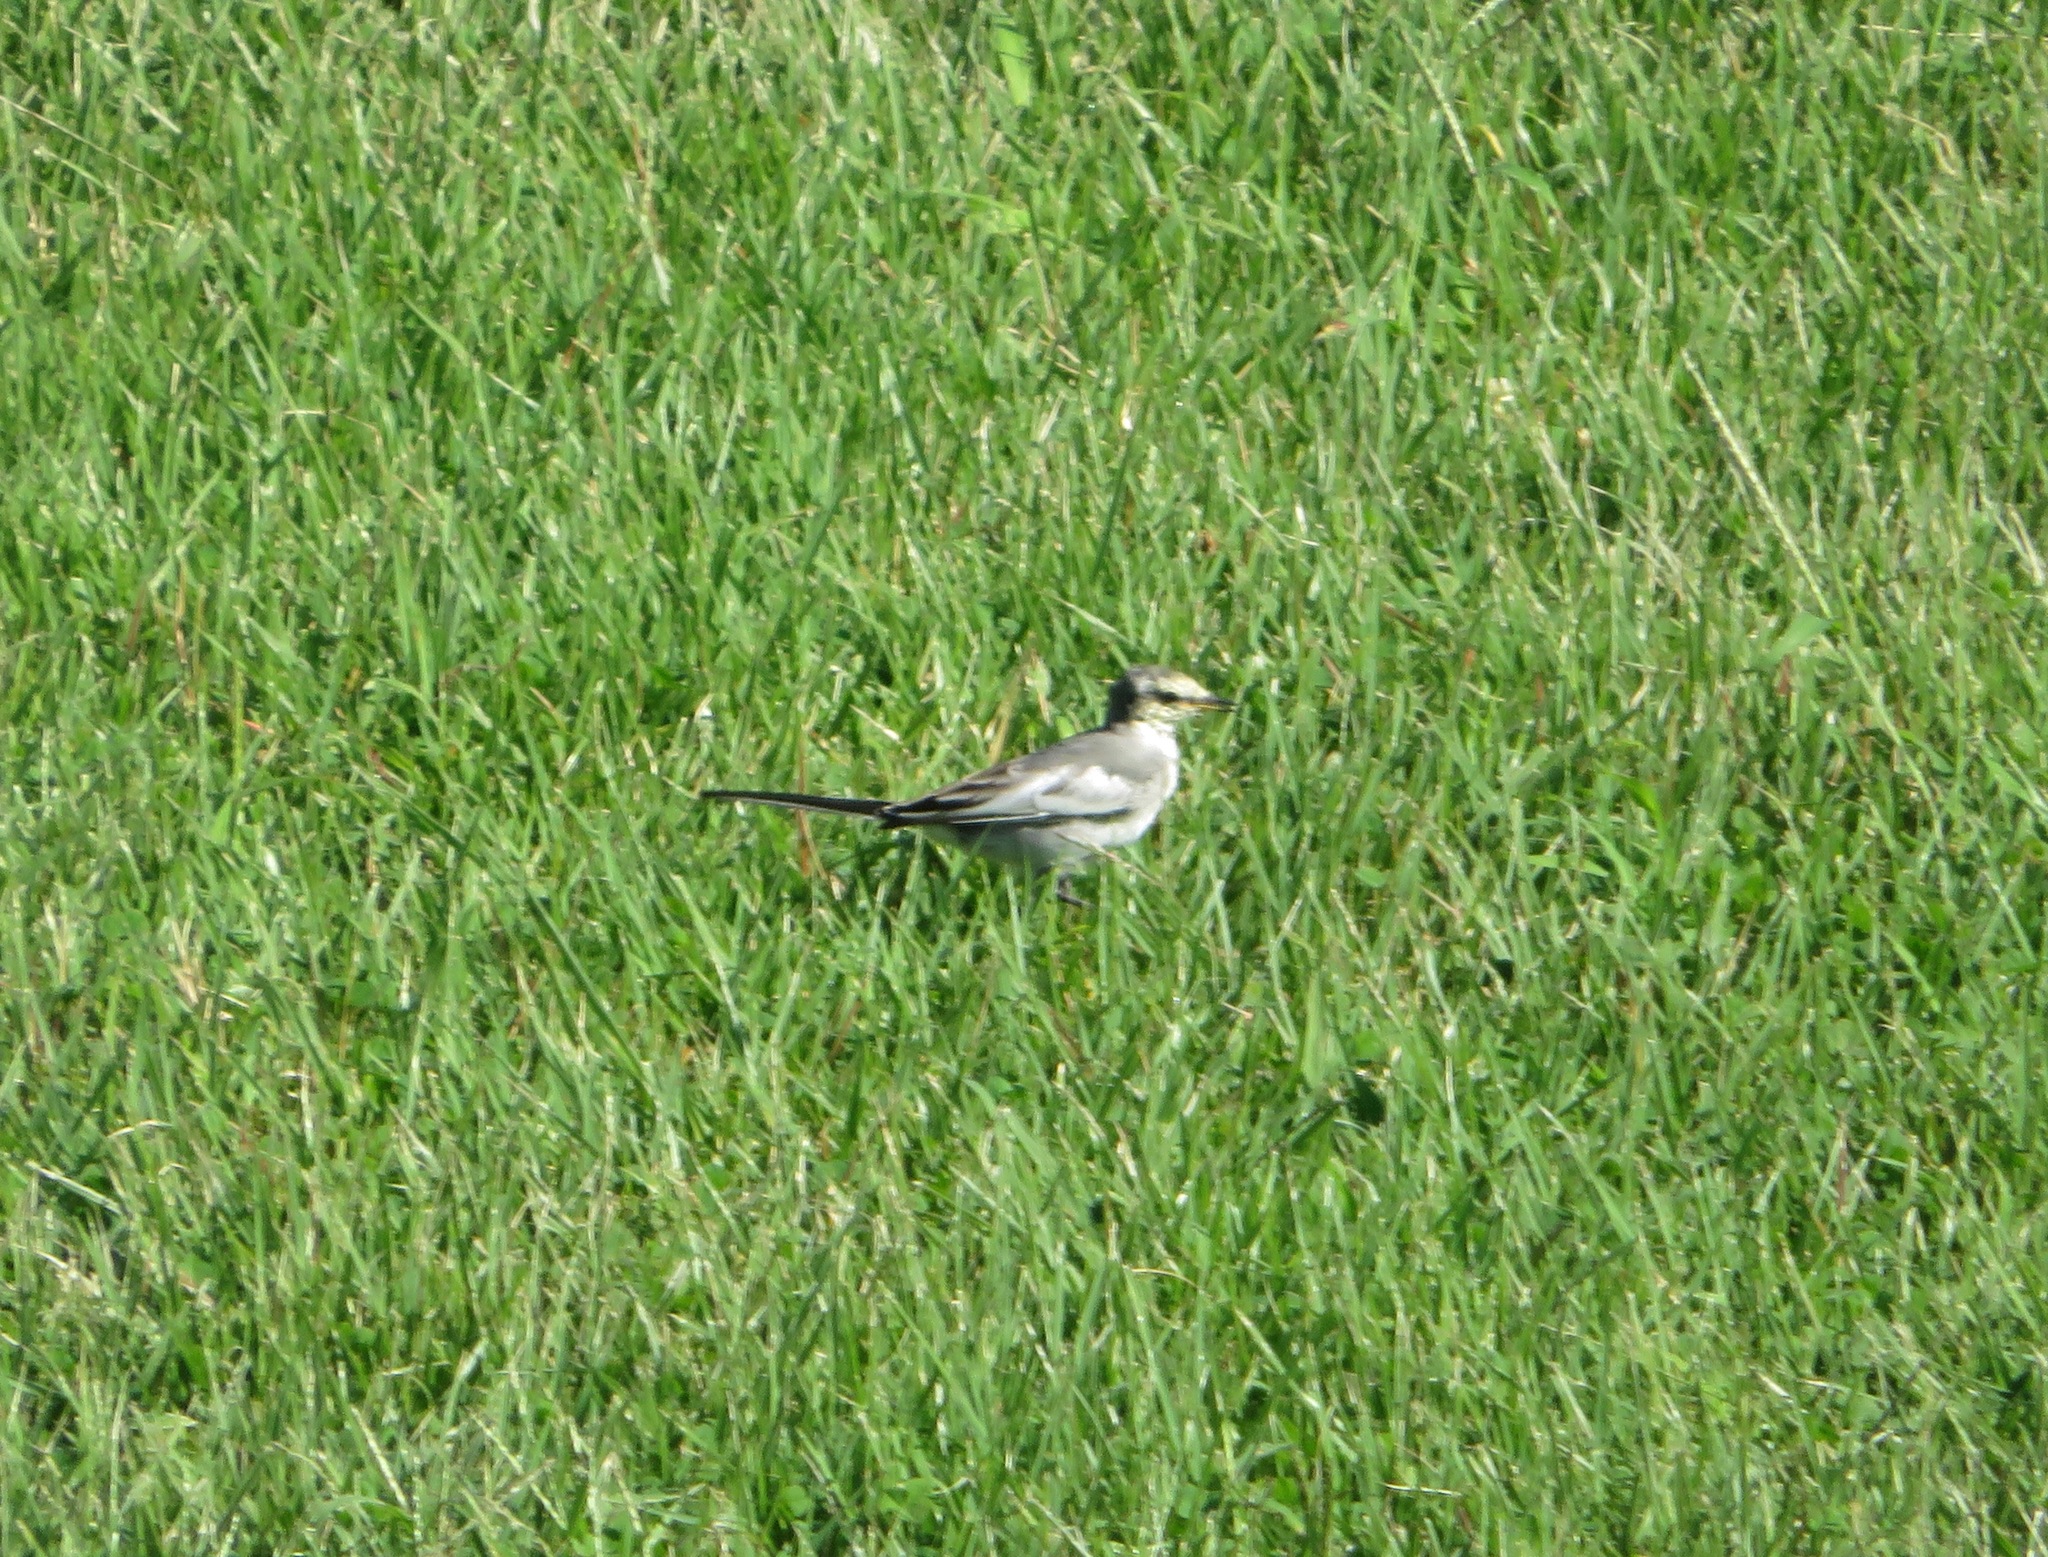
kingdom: Animalia
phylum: Chordata
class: Aves
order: Passeriformes
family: Motacillidae
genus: Motacilla
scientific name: Motacilla alba
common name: White wagtail
